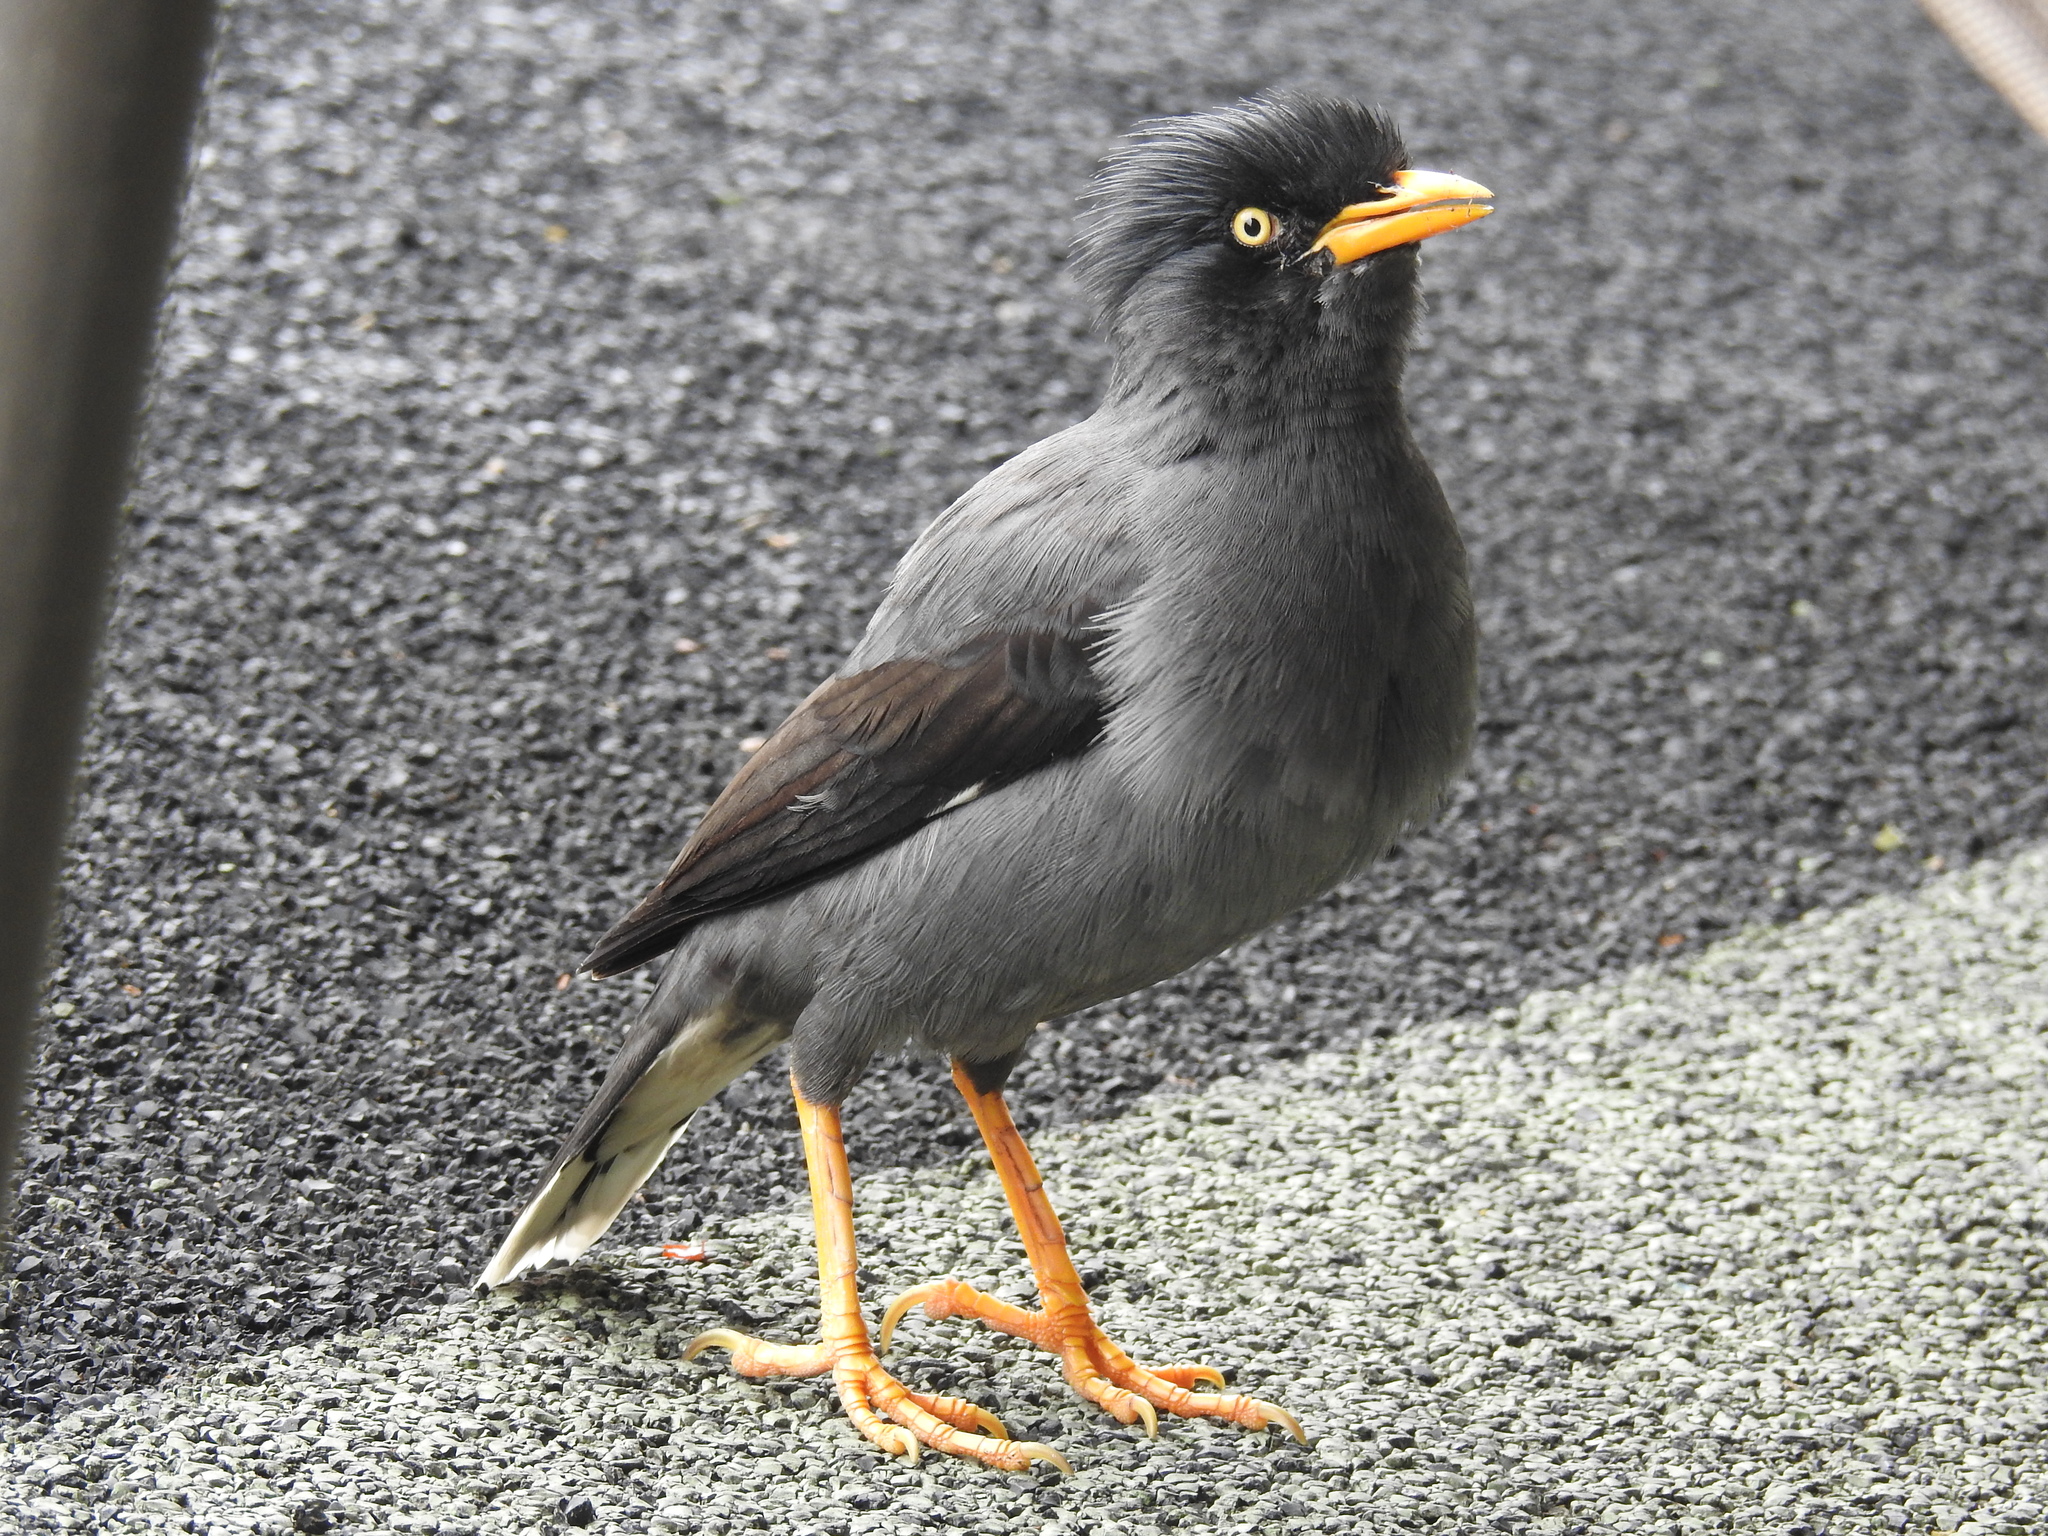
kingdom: Animalia
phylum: Chordata
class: Aves
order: Passeriformes
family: Sturnidae
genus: Acridotheres
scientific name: Acridotheres javanicus
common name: Javan myna
